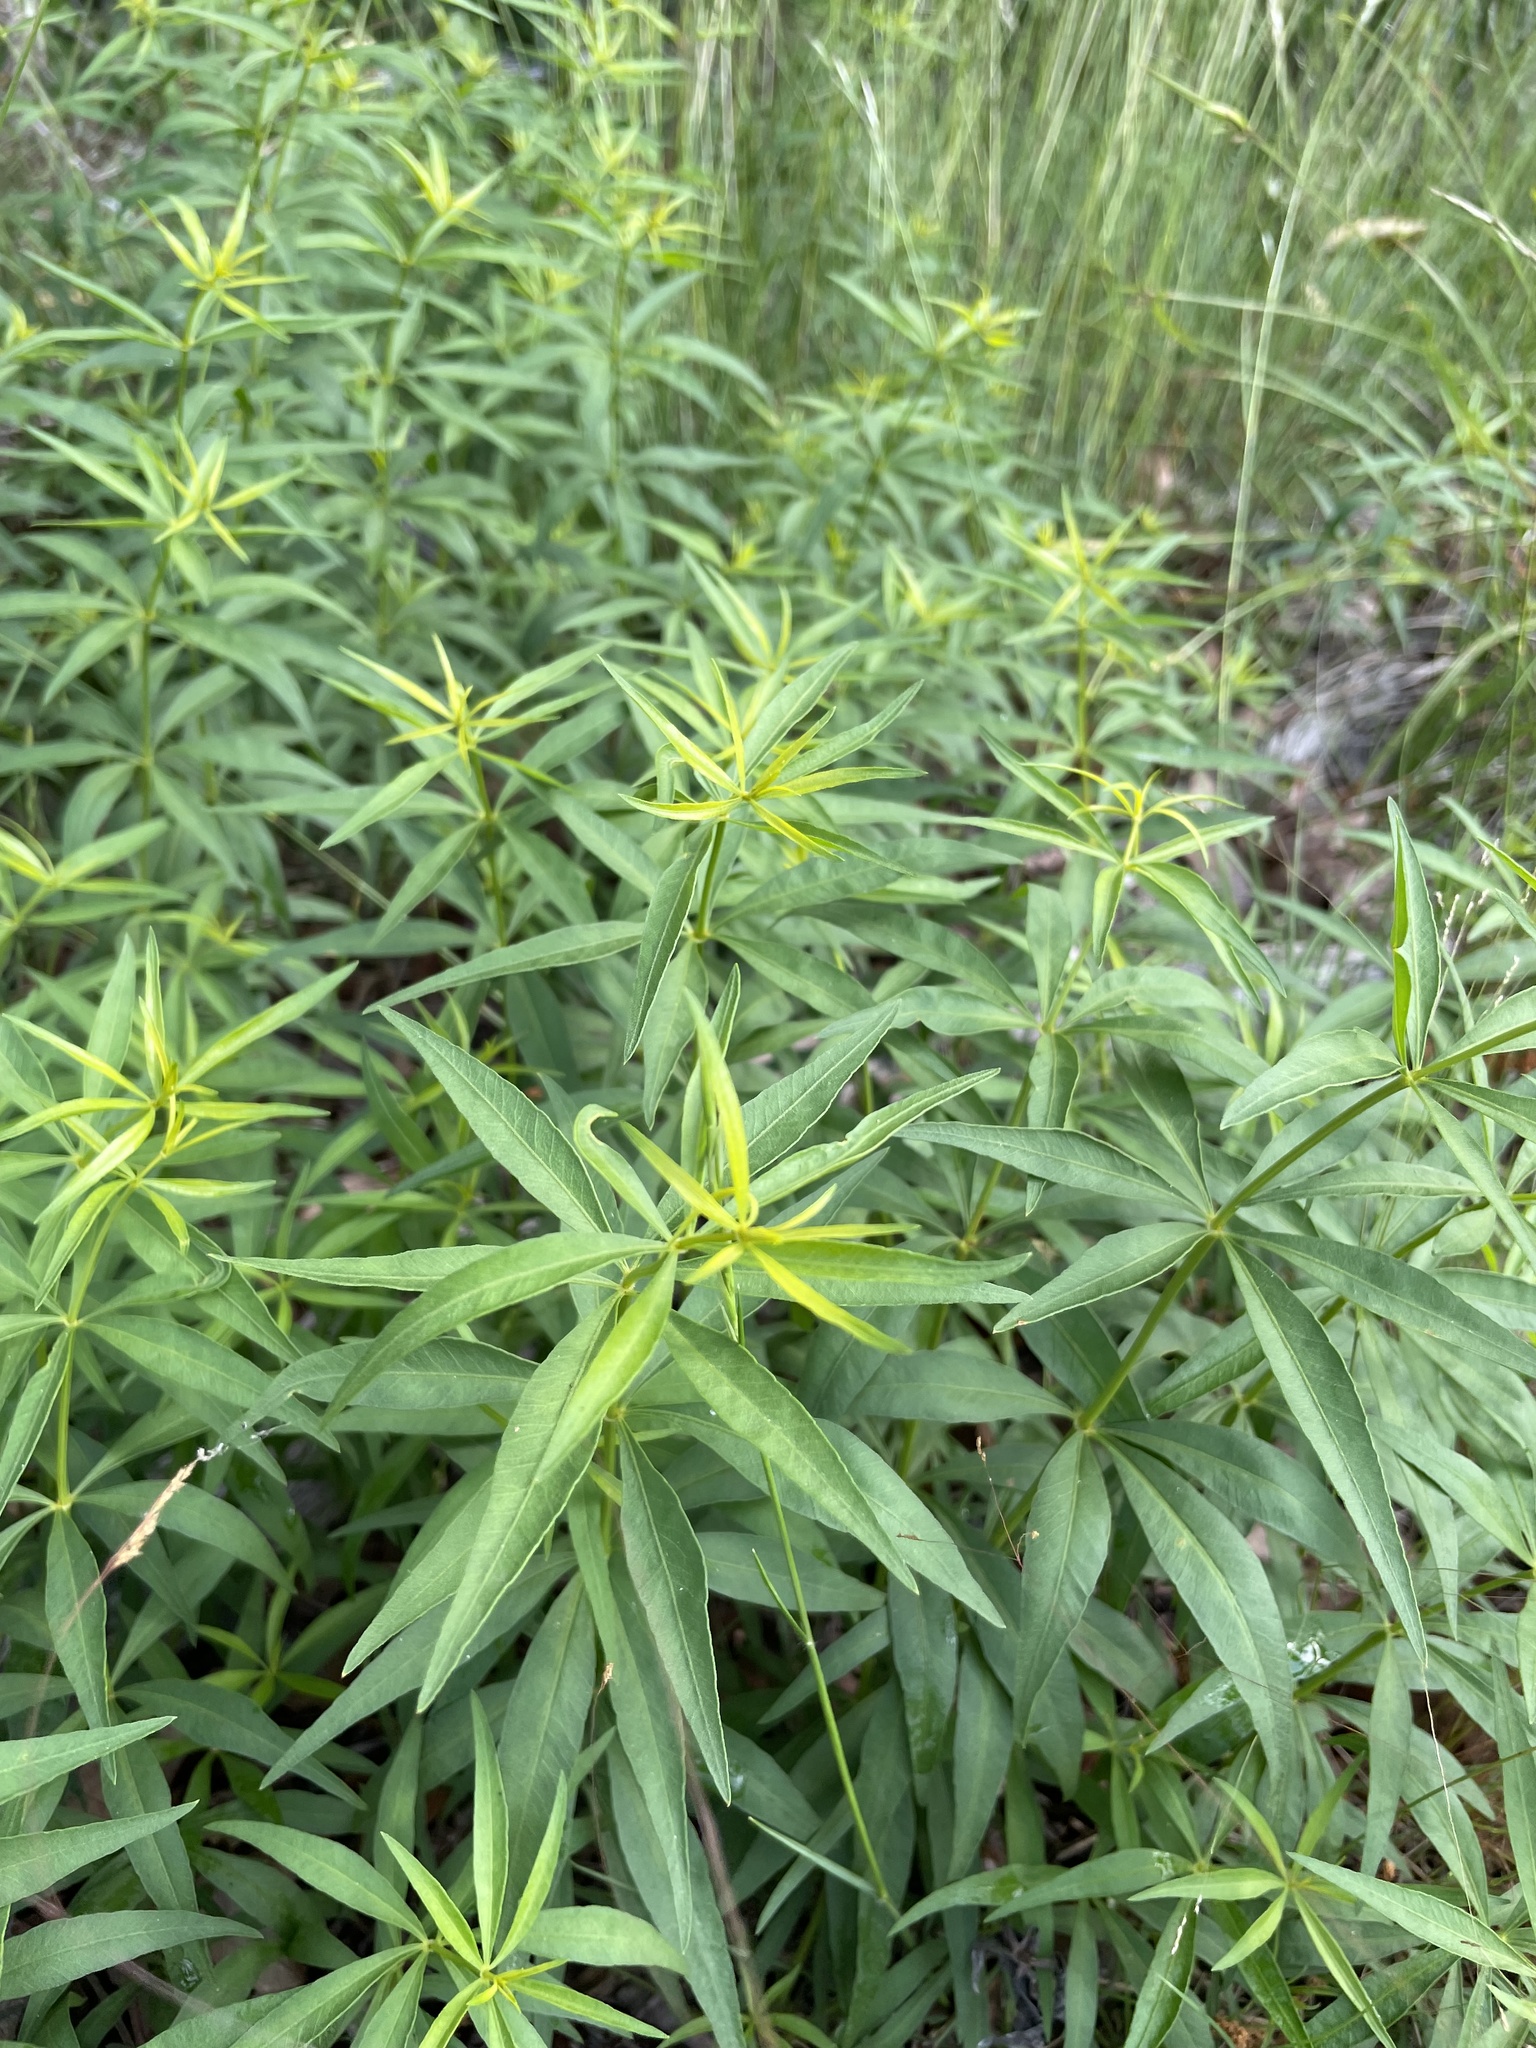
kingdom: Plantae
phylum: Tracheophyta
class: Magnoliopsida
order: Asterales
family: Asteraceae
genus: Coreopsis
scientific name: Coreopsis major
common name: Forest tickseed
